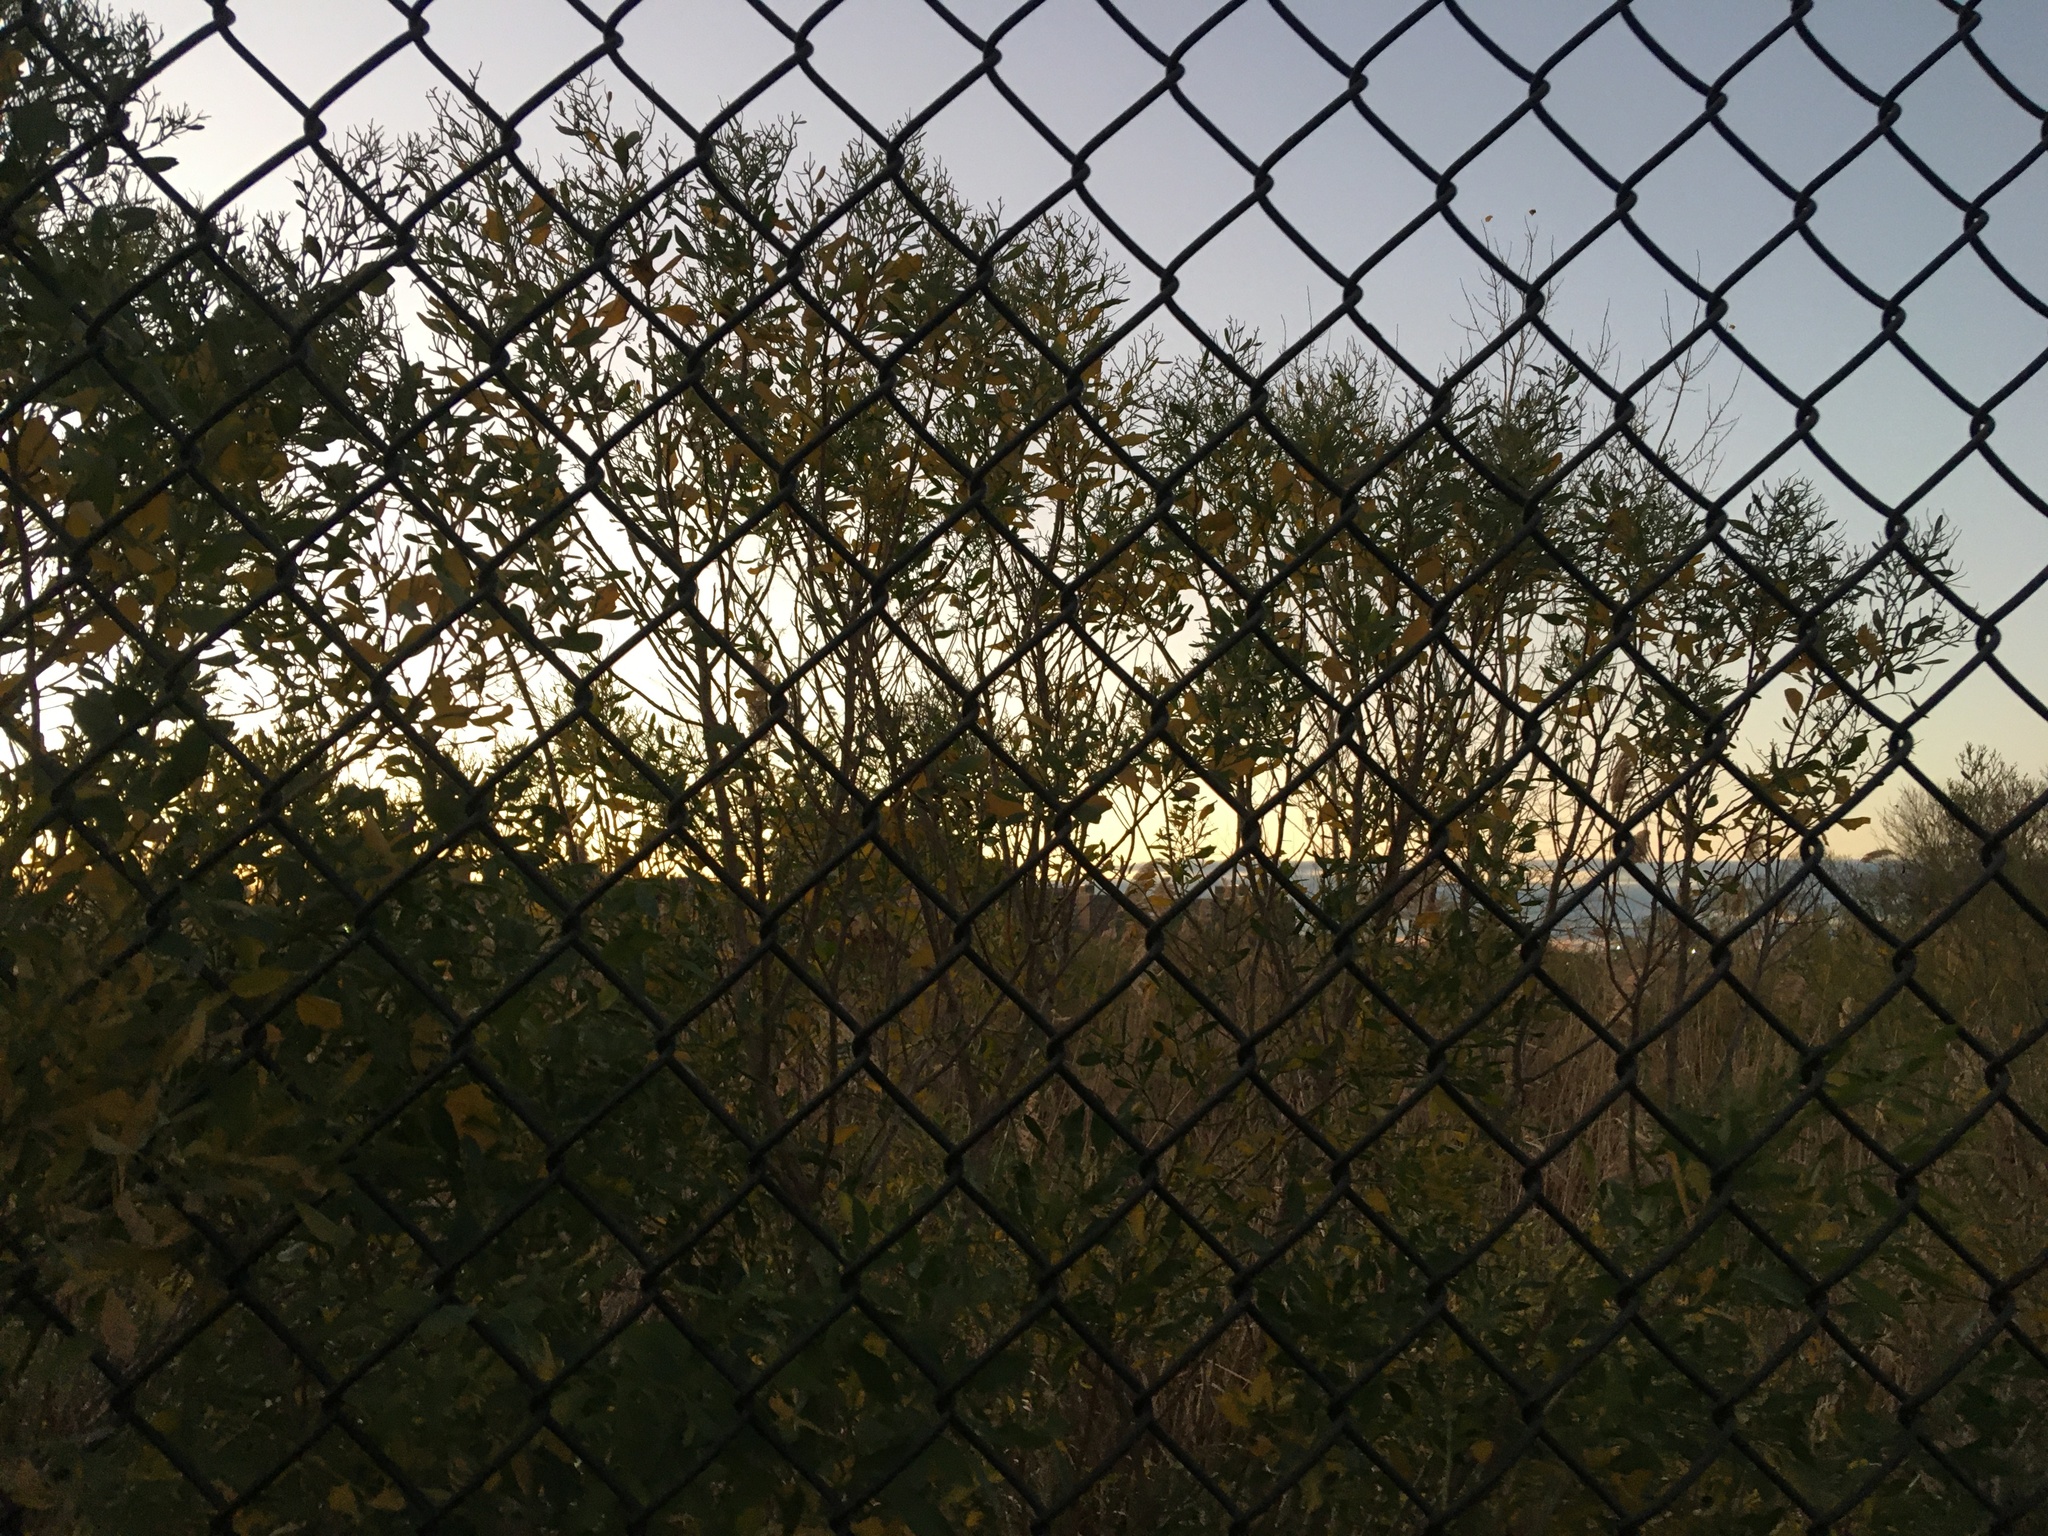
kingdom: Plantae
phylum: Tracheophyta
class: Magnoliopsida
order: Asterales
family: Asteraceae
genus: Baccharis
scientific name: Baccharis halimifolia
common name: Eastern baccharis
